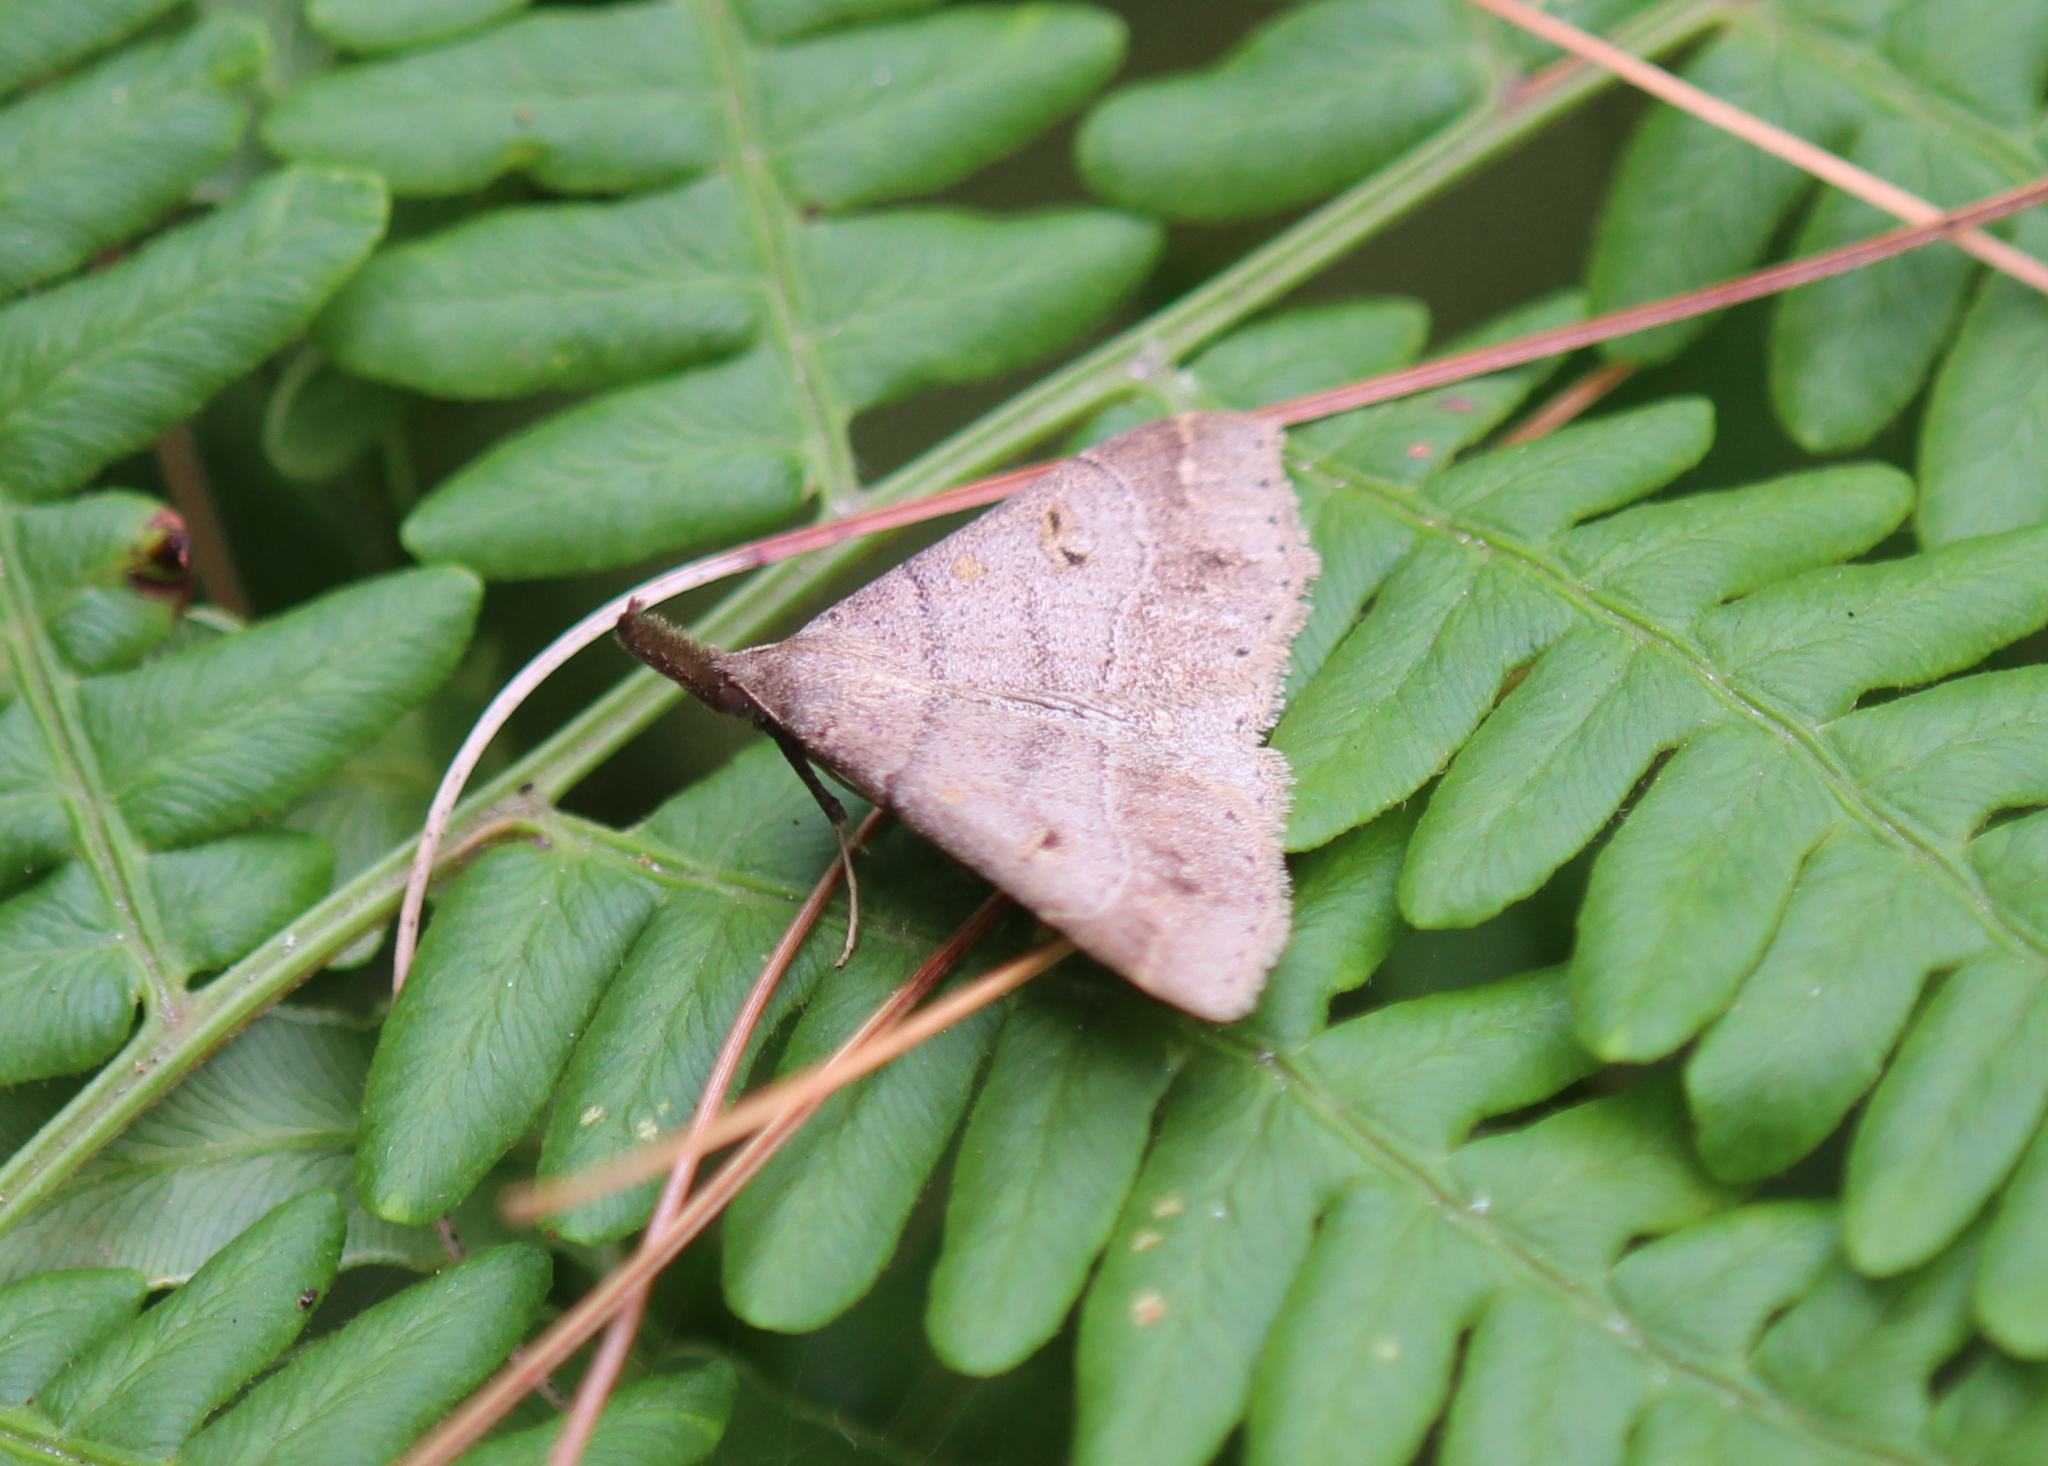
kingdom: Animalia
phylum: Arthropoda
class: Insecta
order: Lepidoptera
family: Erebidae
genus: Renia
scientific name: Renia flavipunctalis
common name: Yellow-spotted renia moth
